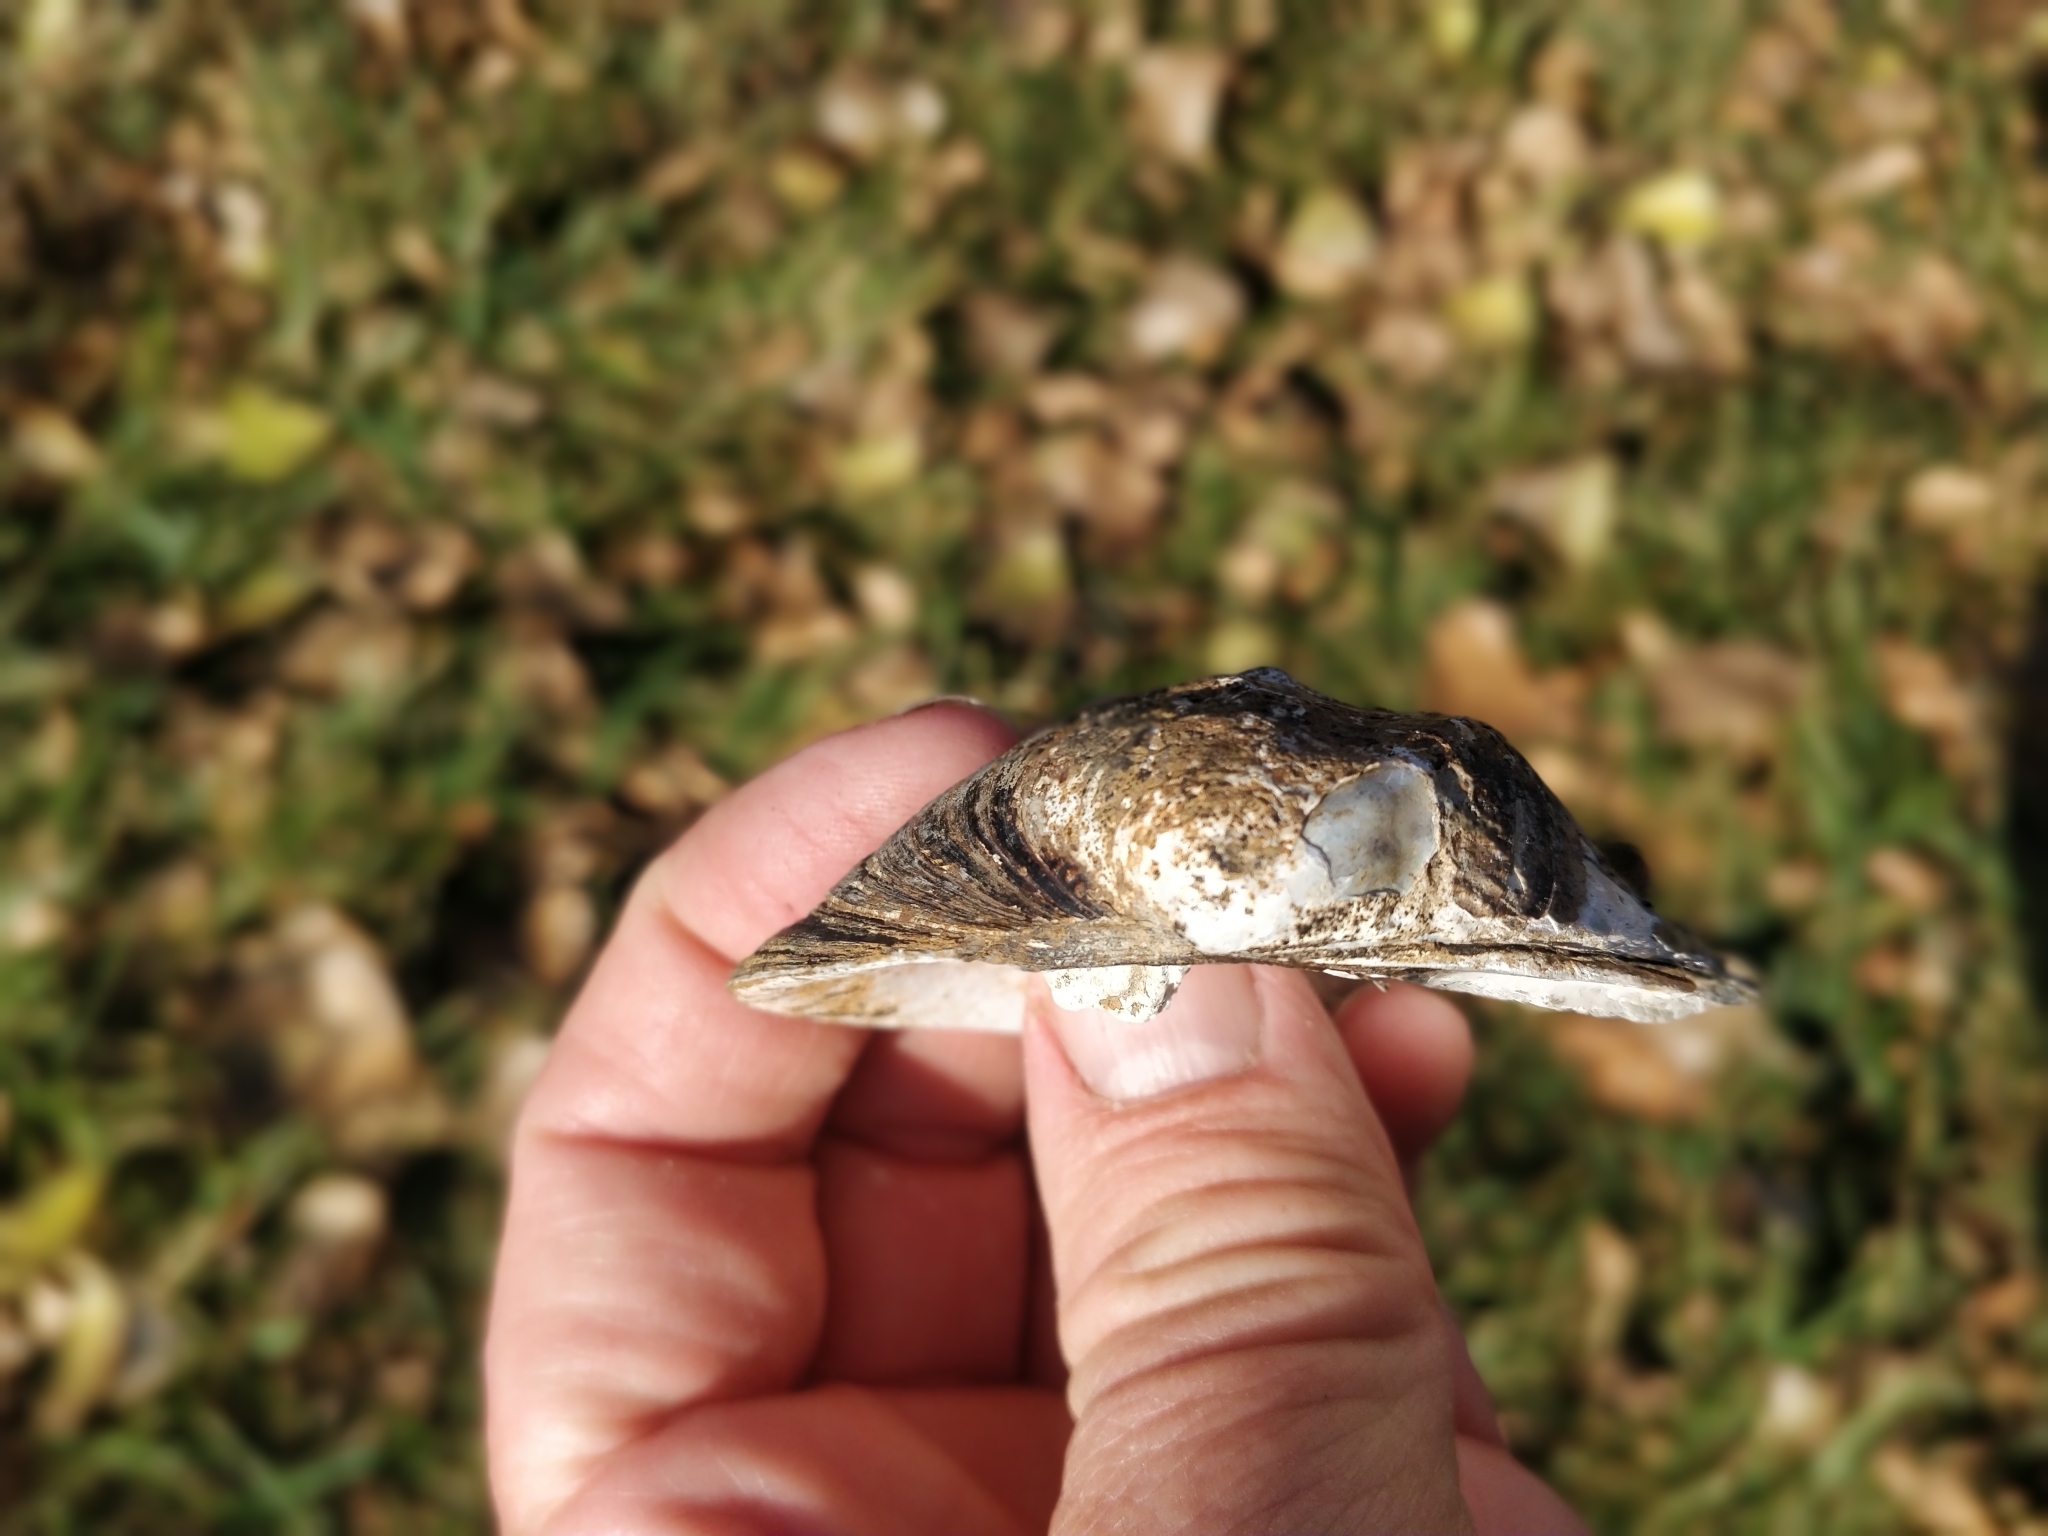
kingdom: Animalia
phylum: Mollusca
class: Bivalvia
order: Unionida
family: Unionidae
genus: Quadrula
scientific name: Quadrula quadrula
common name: Mapleleaf
